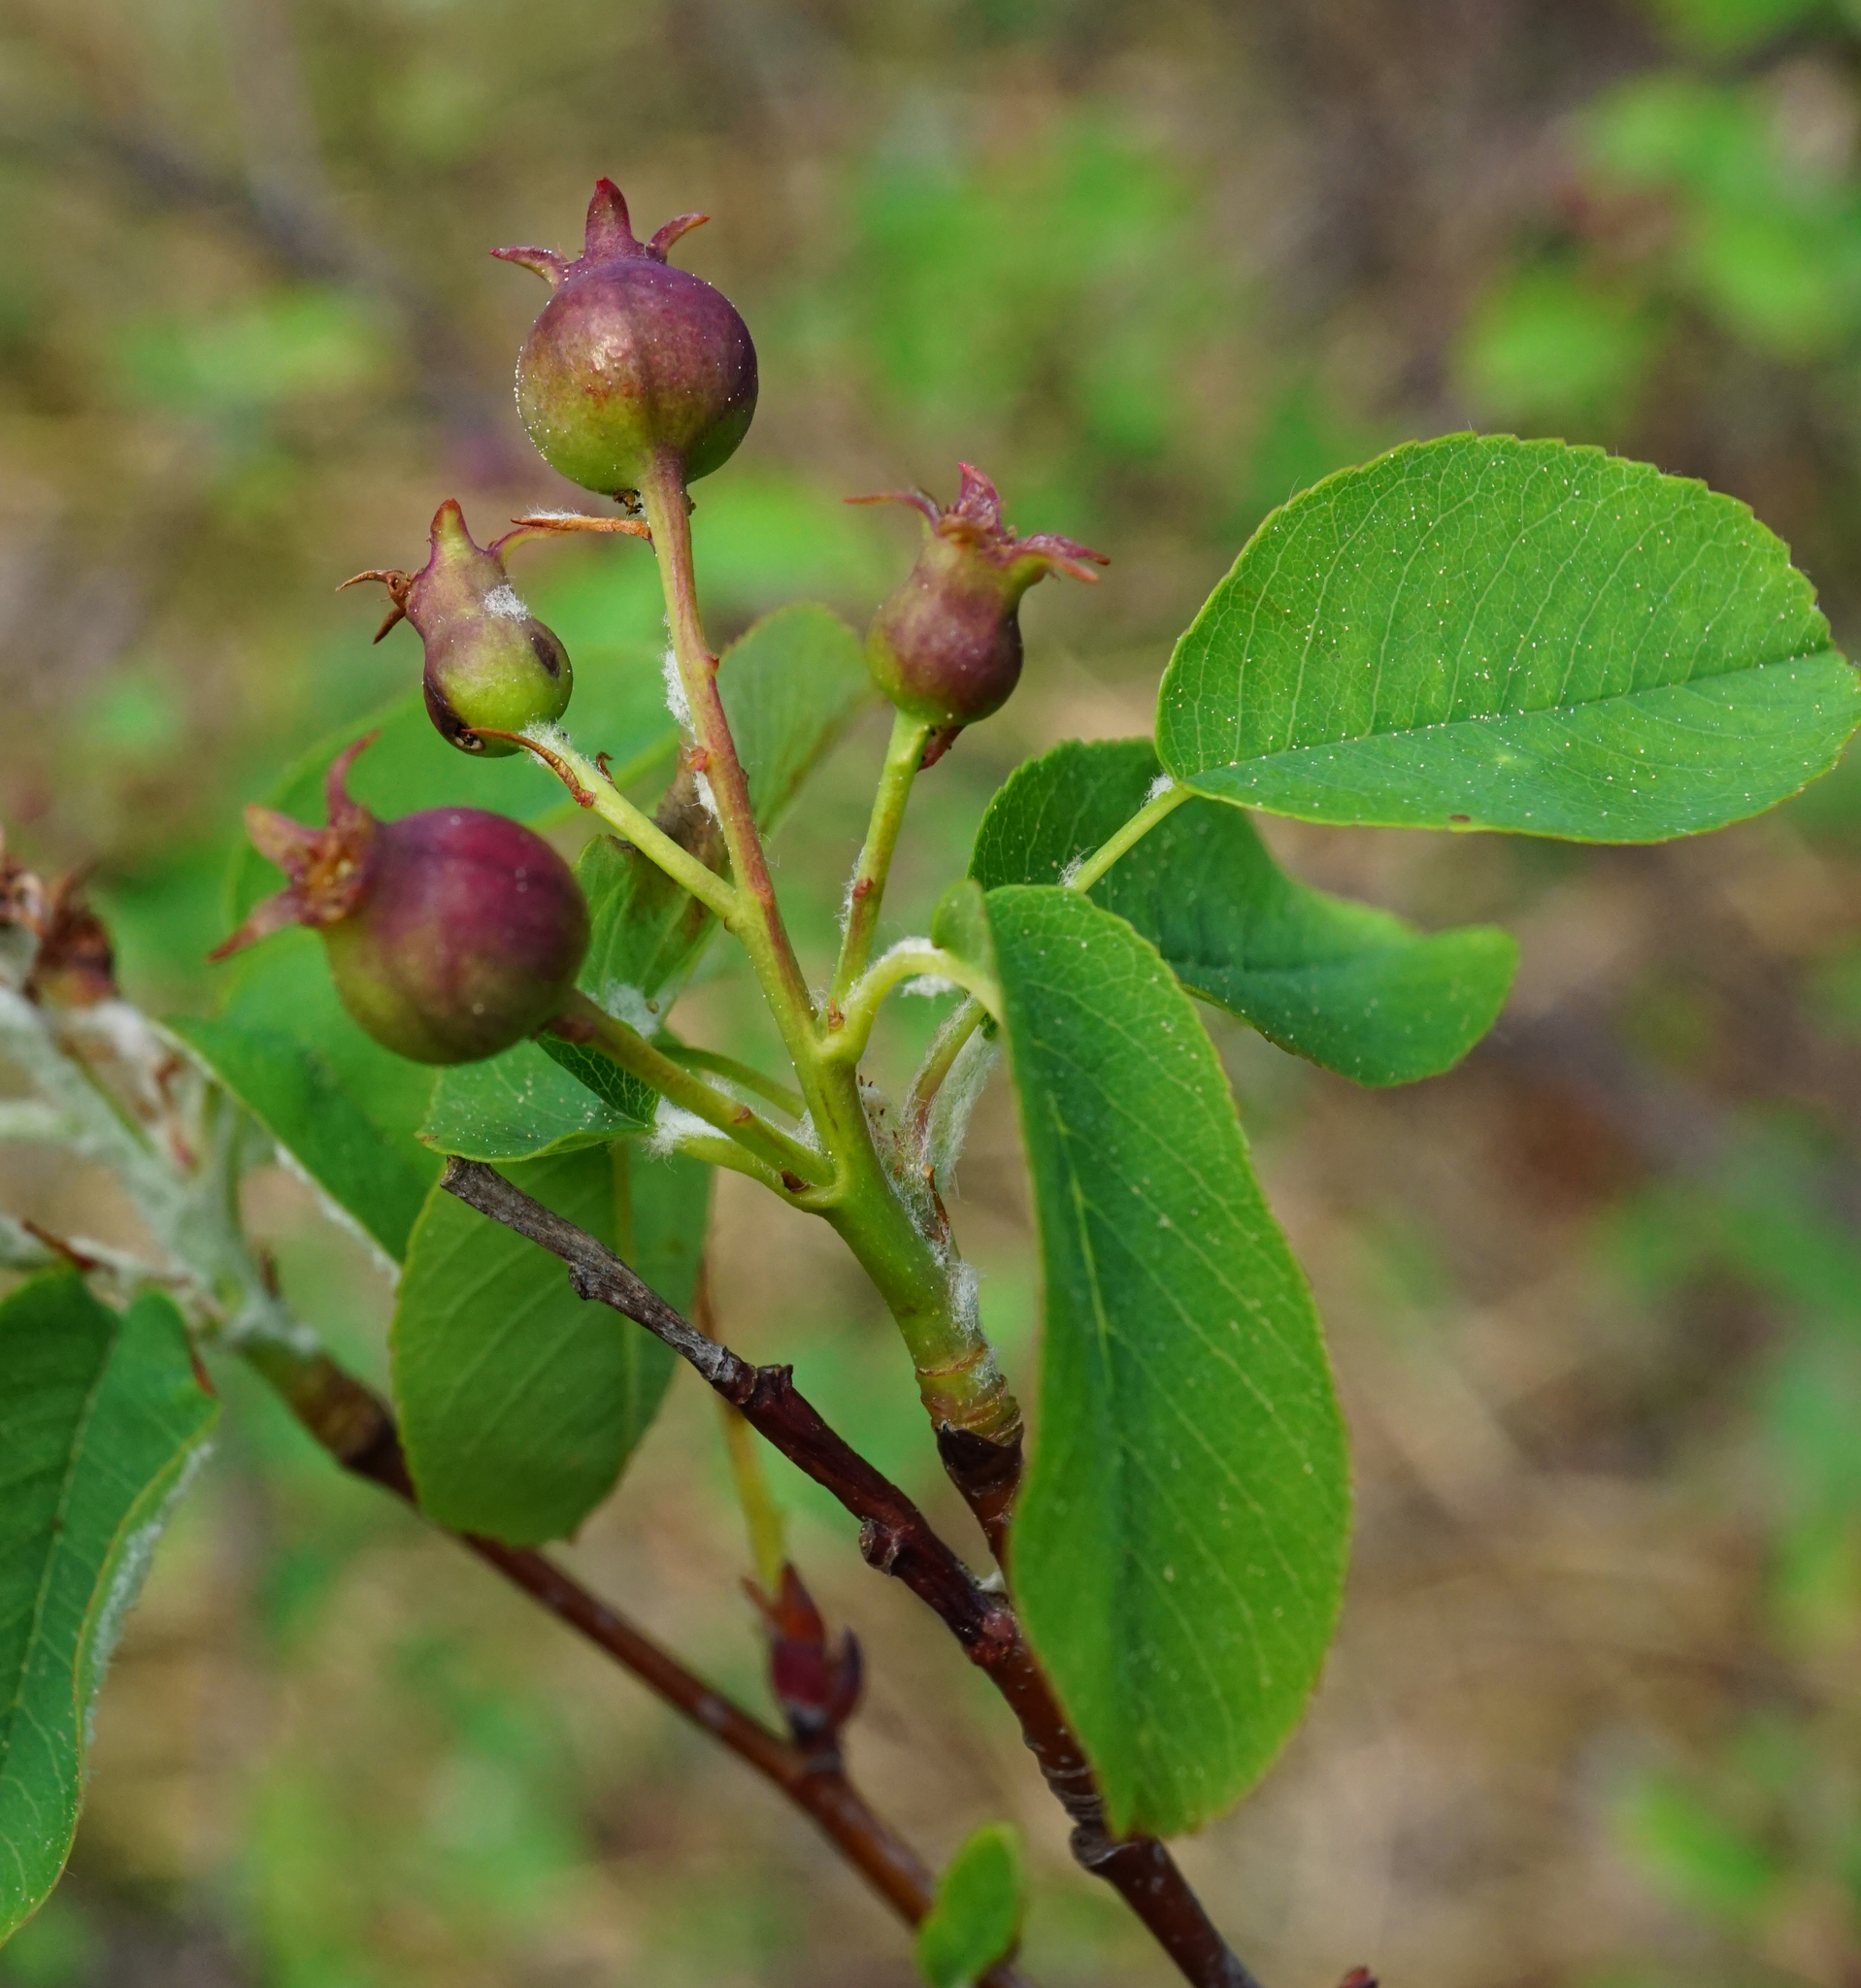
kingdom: Plantae
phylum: Tracheophyta
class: Magnoliopsida
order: Rosales
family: Rosaceae
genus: Amelanchier
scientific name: Amelanchier ovalis
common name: Serviceberry
